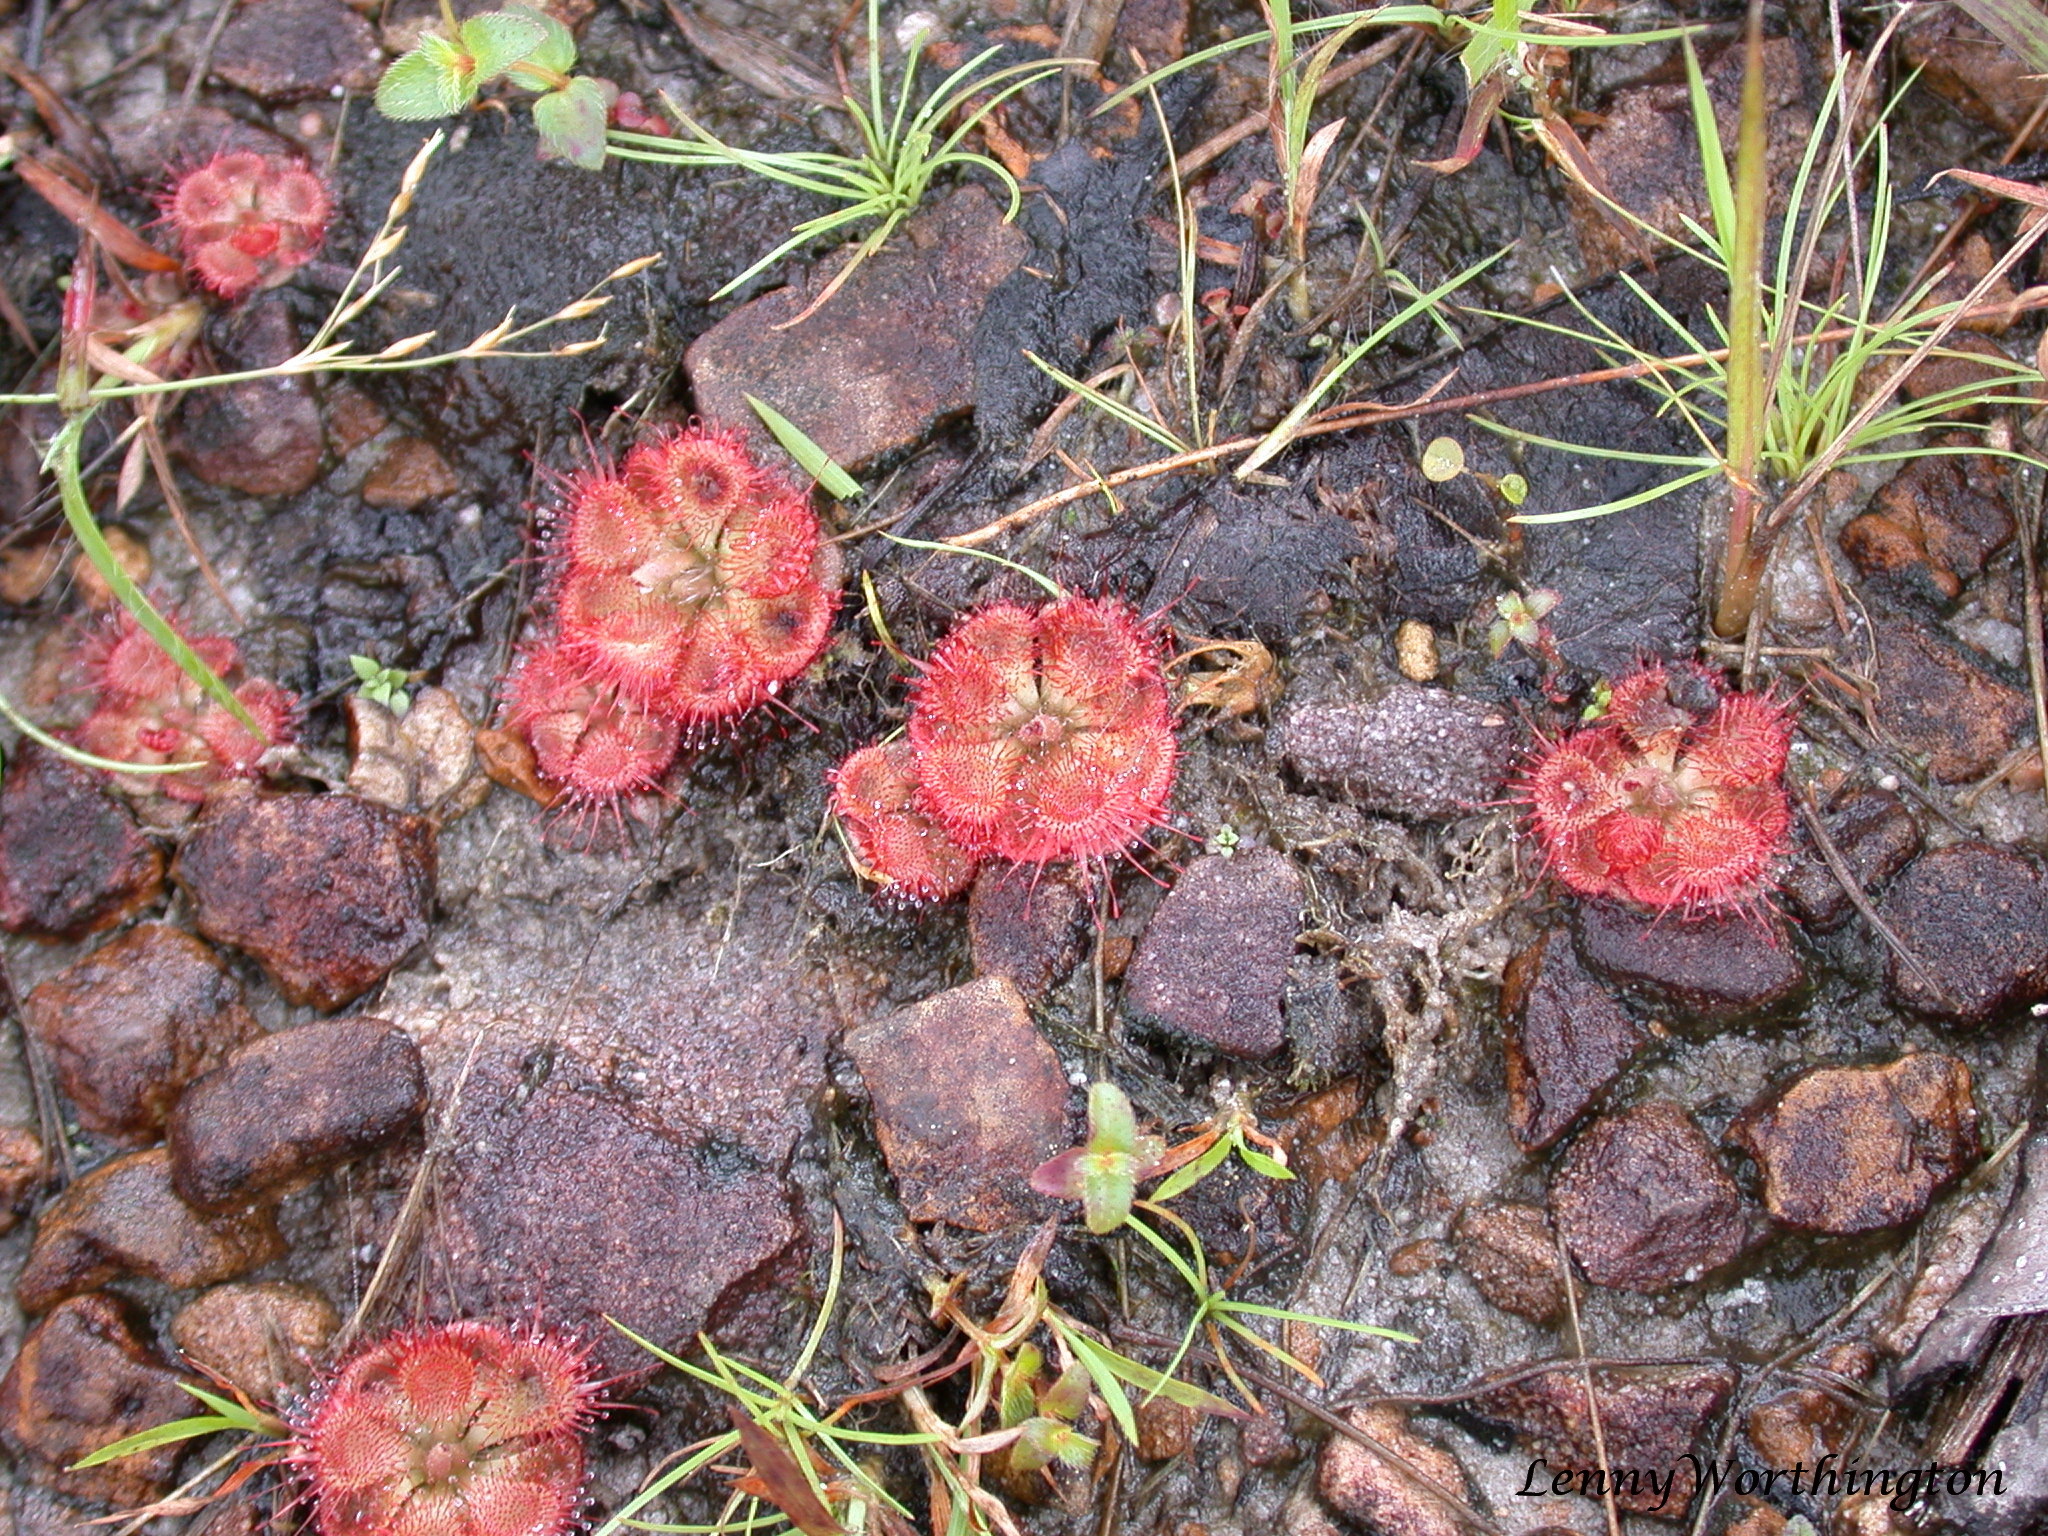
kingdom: Plantae
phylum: Tracheophyta
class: Magnoliopsida
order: Caryophyllales
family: Droseraceae
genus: Drosera
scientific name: Drosera spatulata
